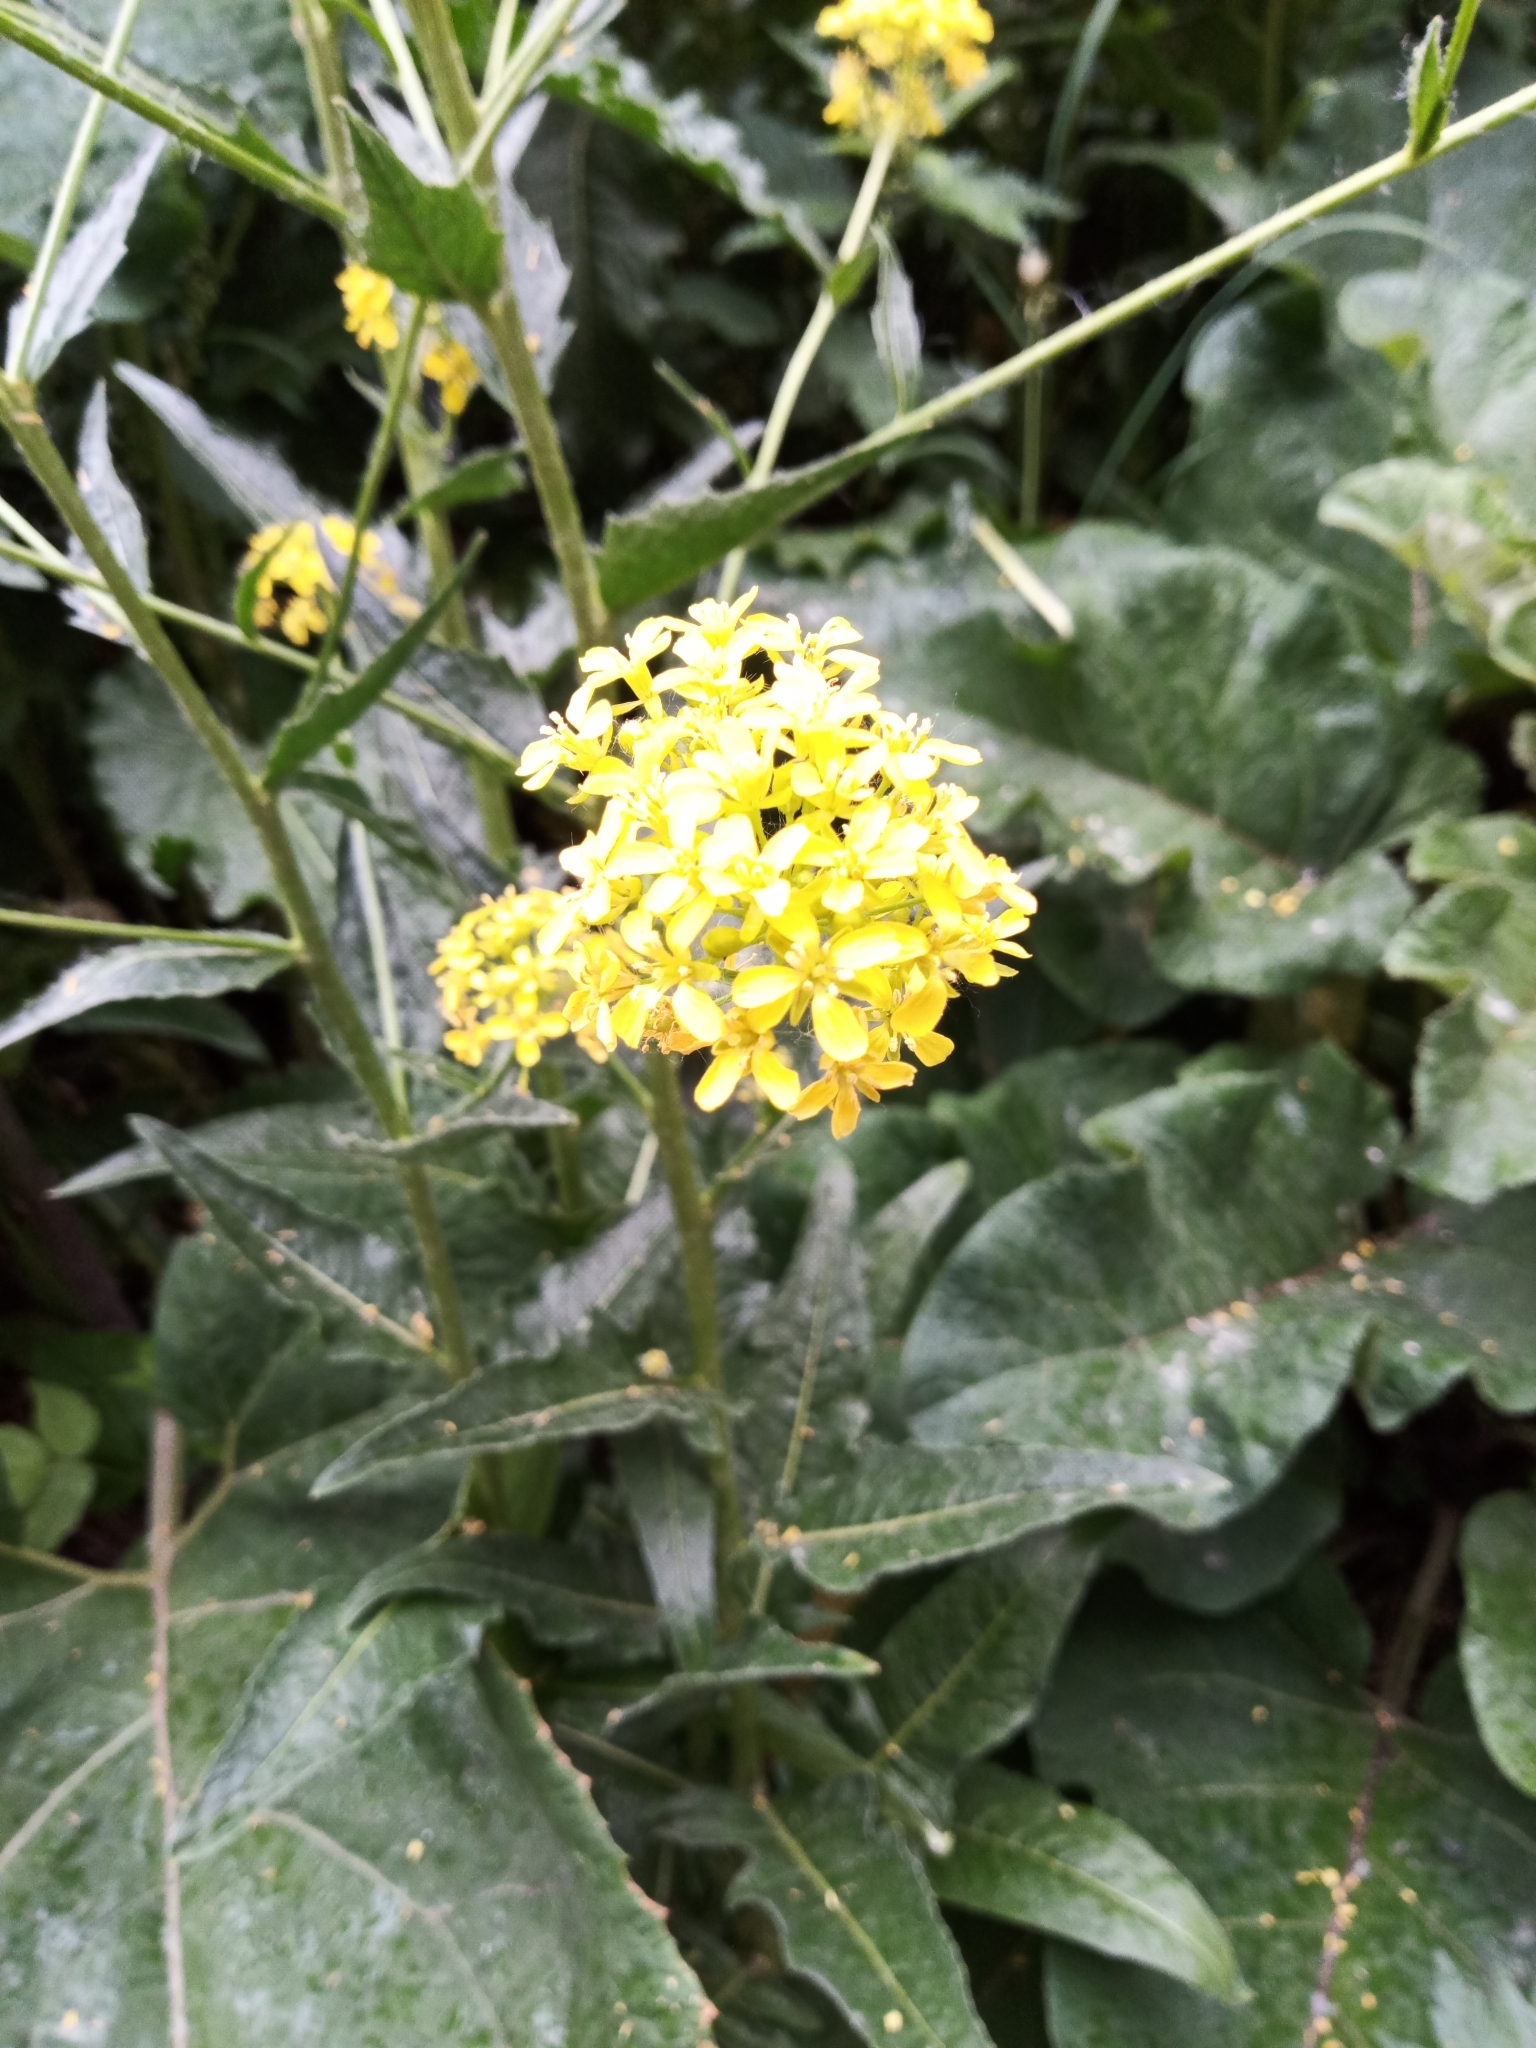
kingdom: Plantae
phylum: Tracheophyta
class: Magnoliopsida
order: Brassicales
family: Brassicaceae
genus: Bunias
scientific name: Bunias orientalis
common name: Warty-cabbage
